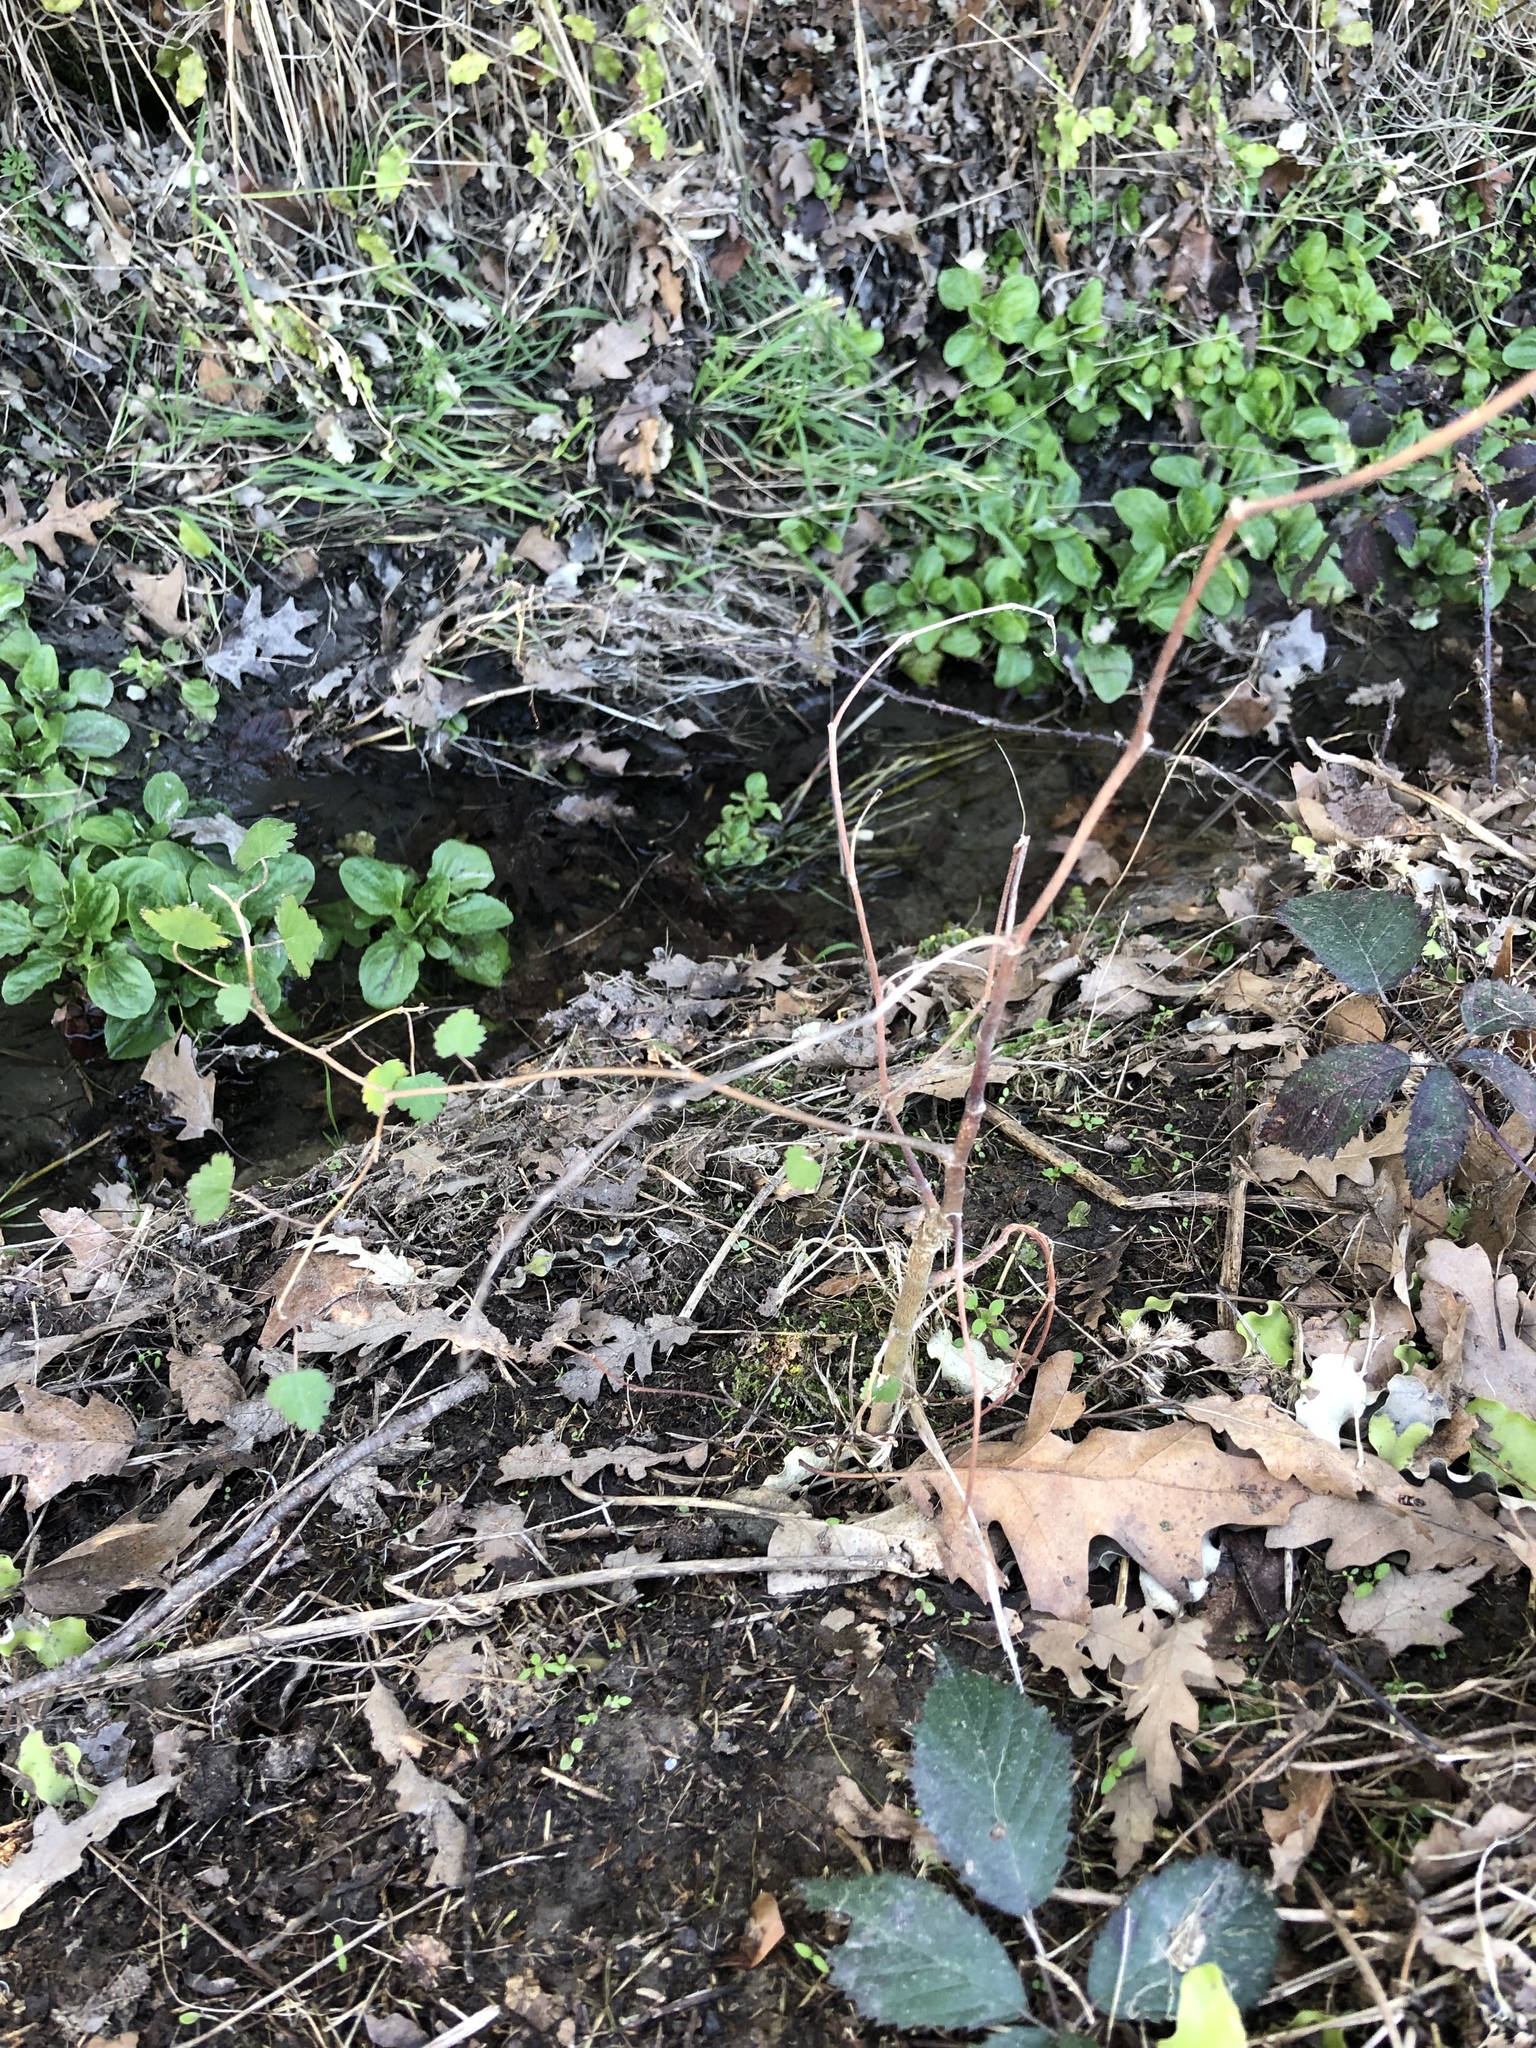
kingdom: Plantae
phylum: Tracheophyta
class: Magnoliopsida
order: Malvales
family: Malvaceae
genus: Plagianthus
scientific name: Plagianthus regius
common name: Manatu
